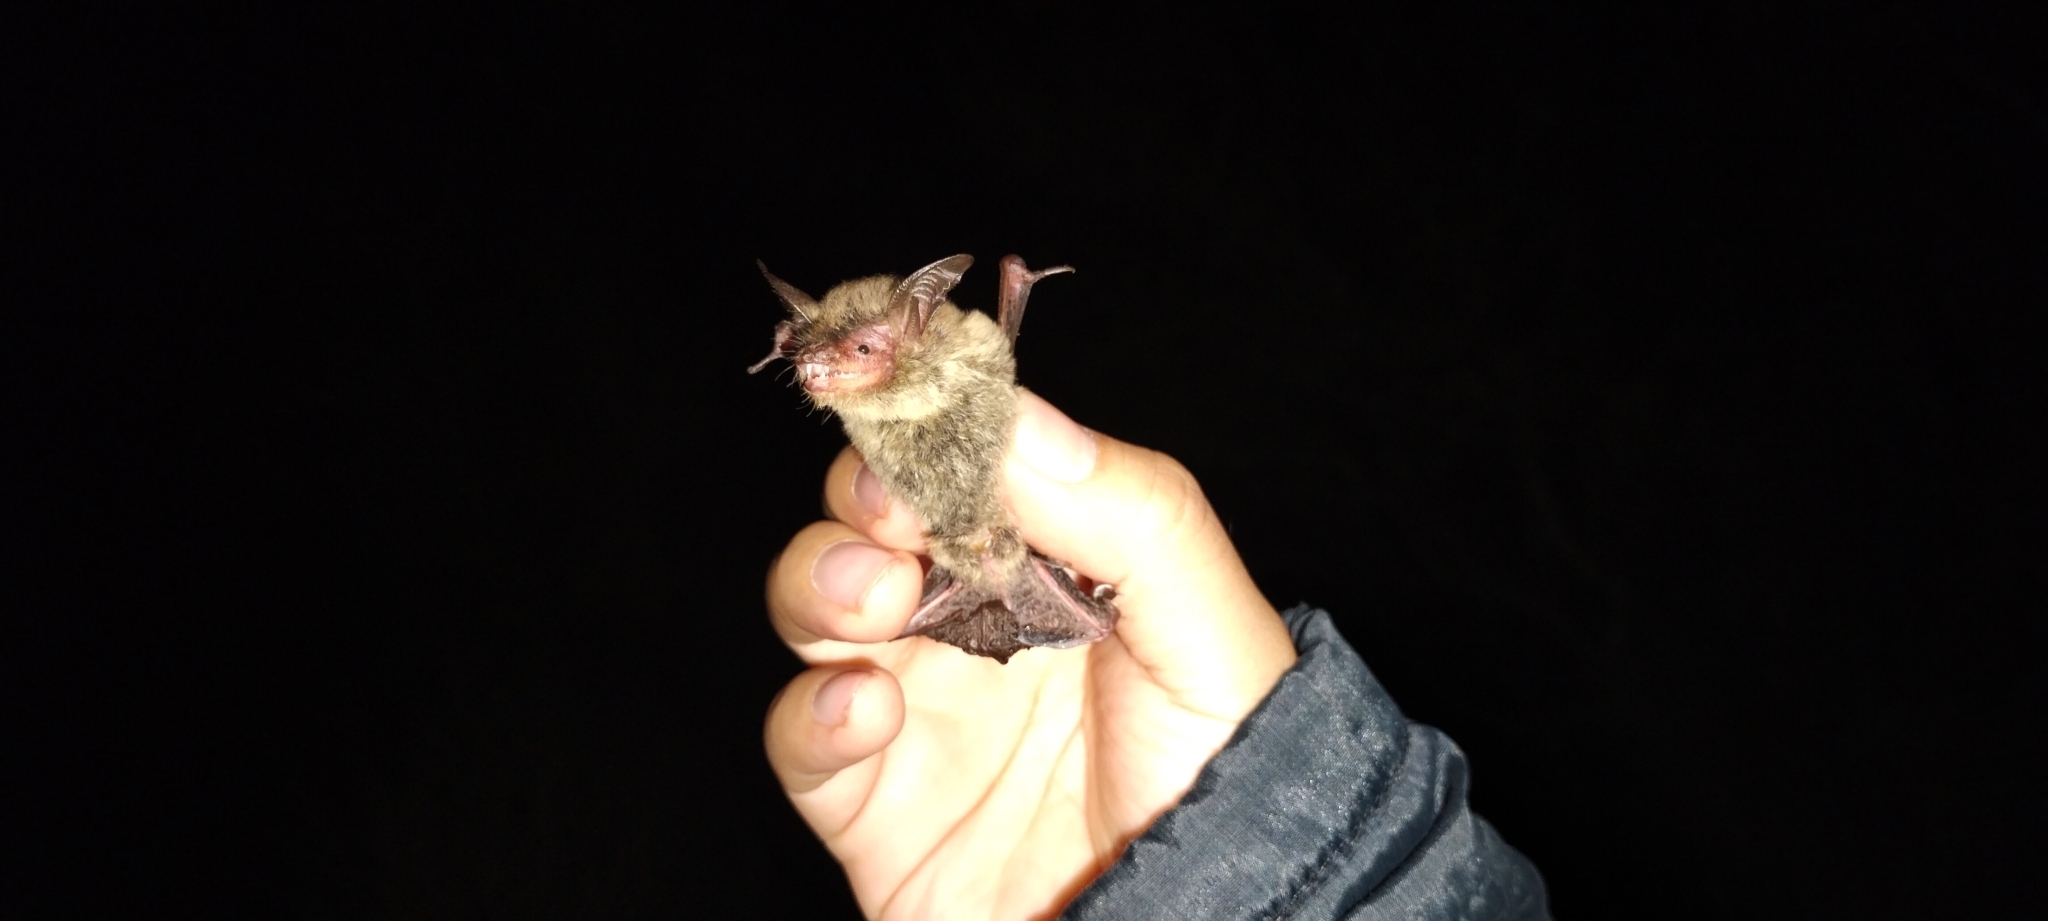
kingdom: Animalia
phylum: Chordata
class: Mammalia
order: Chiroptera
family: Vespertilionidae
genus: Myotis
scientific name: Myotis auriculus
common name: Southwestern myotis
